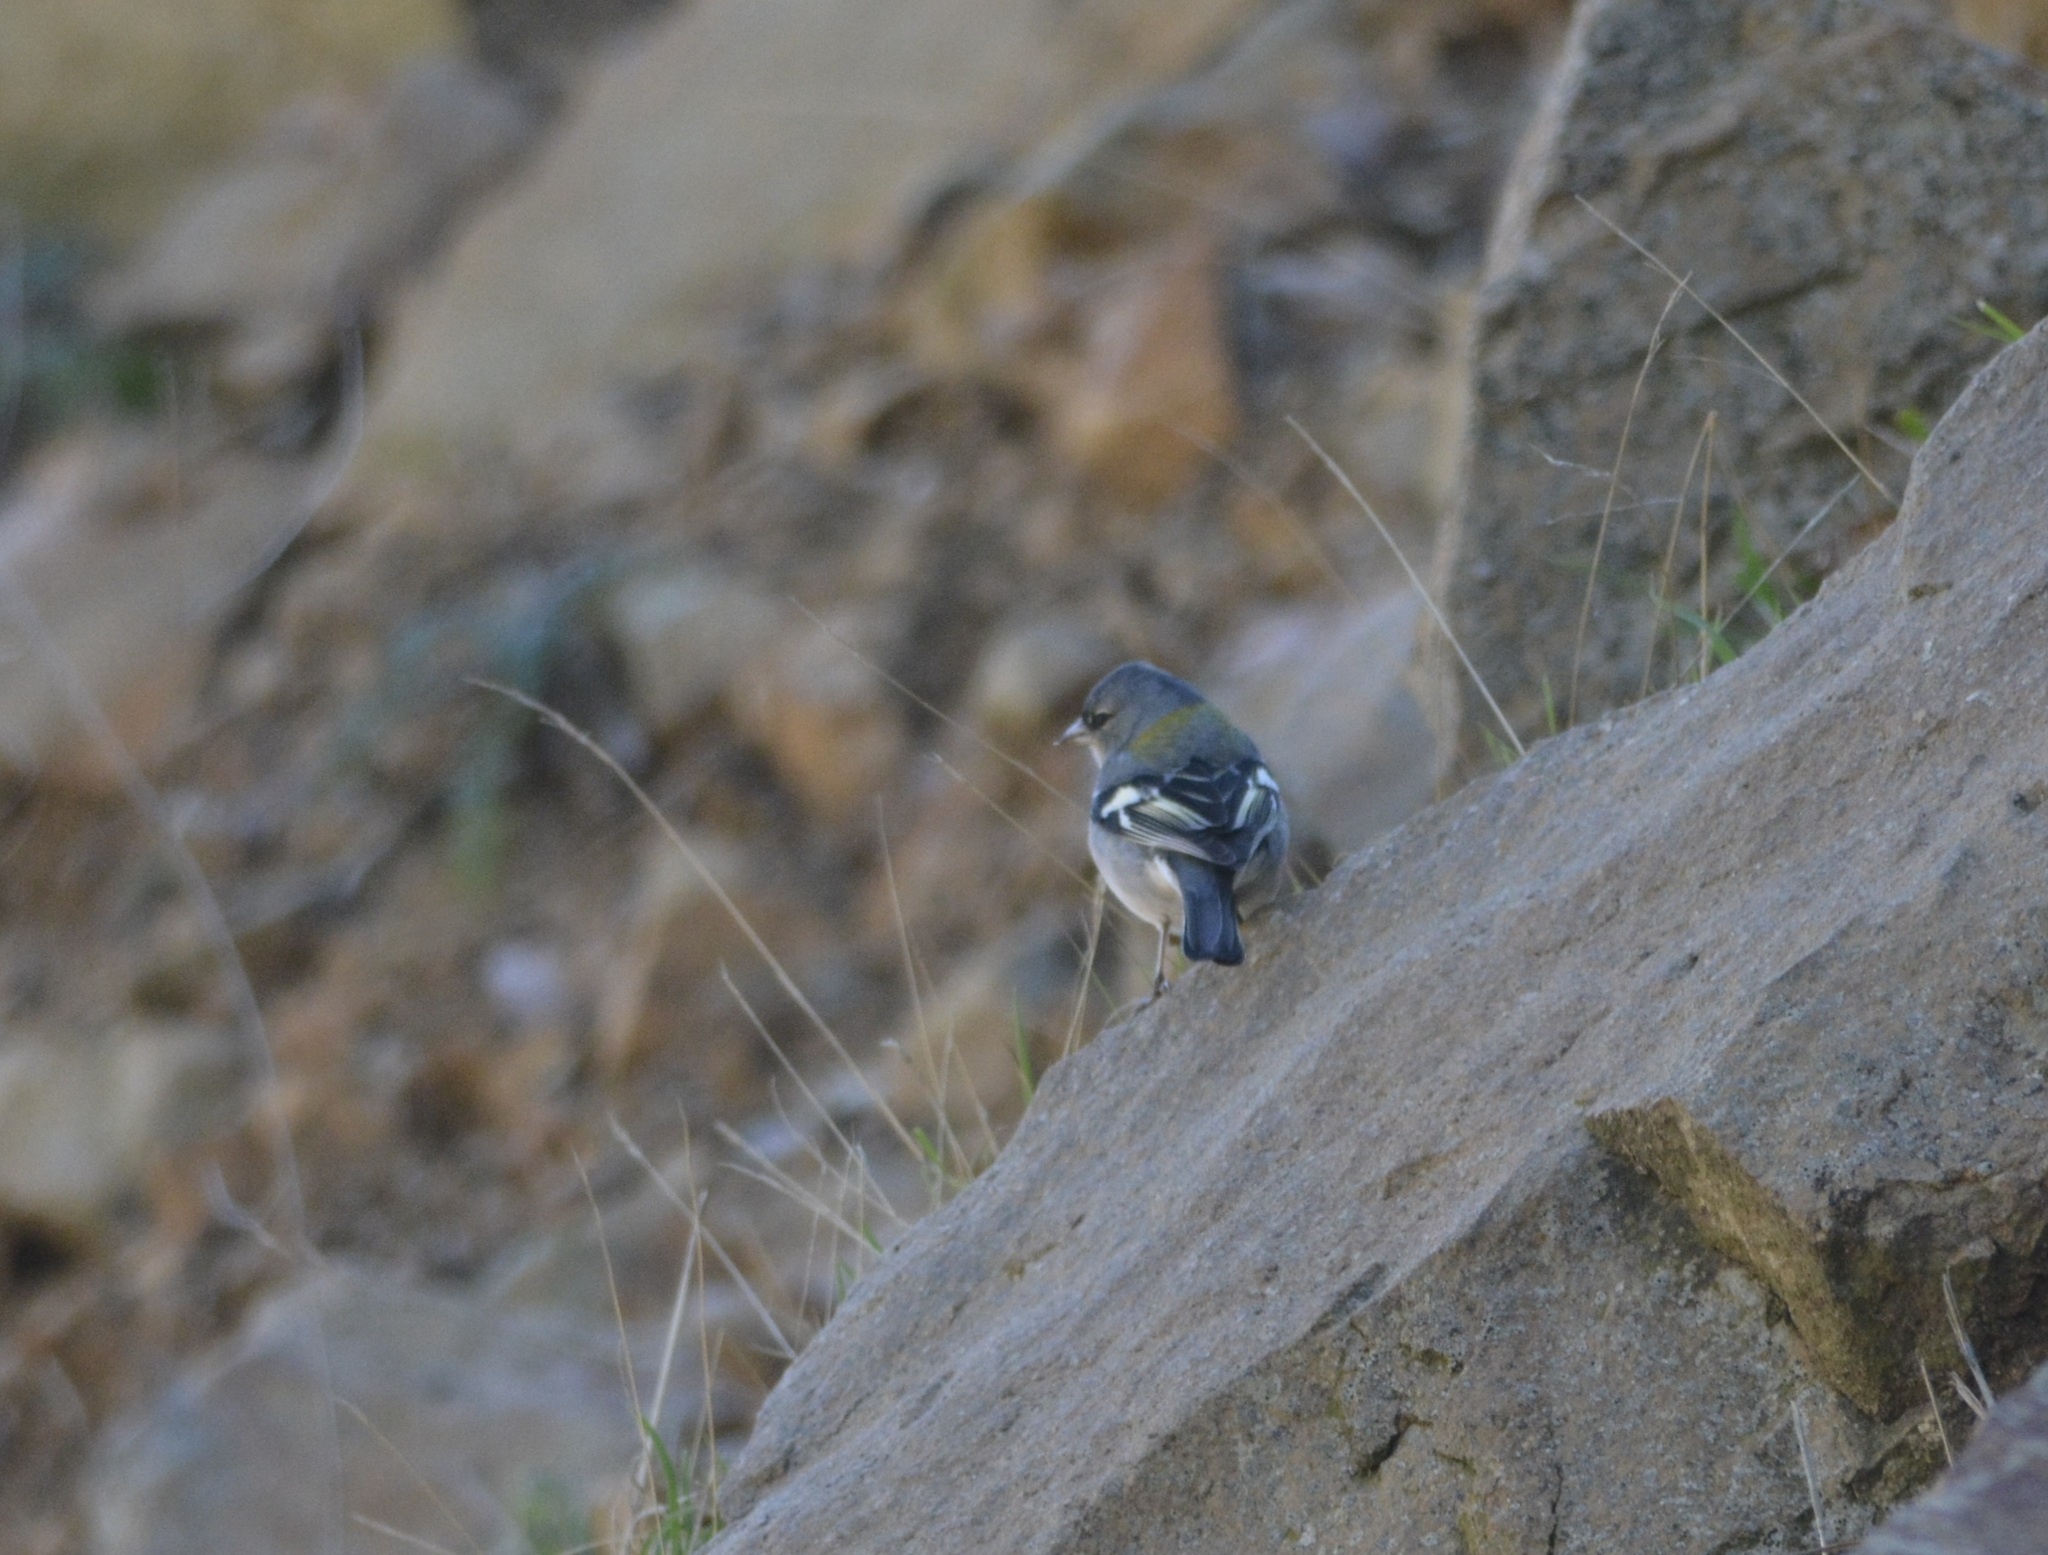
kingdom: Animalia
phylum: Chordata
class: Aves
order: Passeriformes
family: Fringillidae
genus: Fringilla
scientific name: Fringilla spodiogenys
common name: African chaffinch
